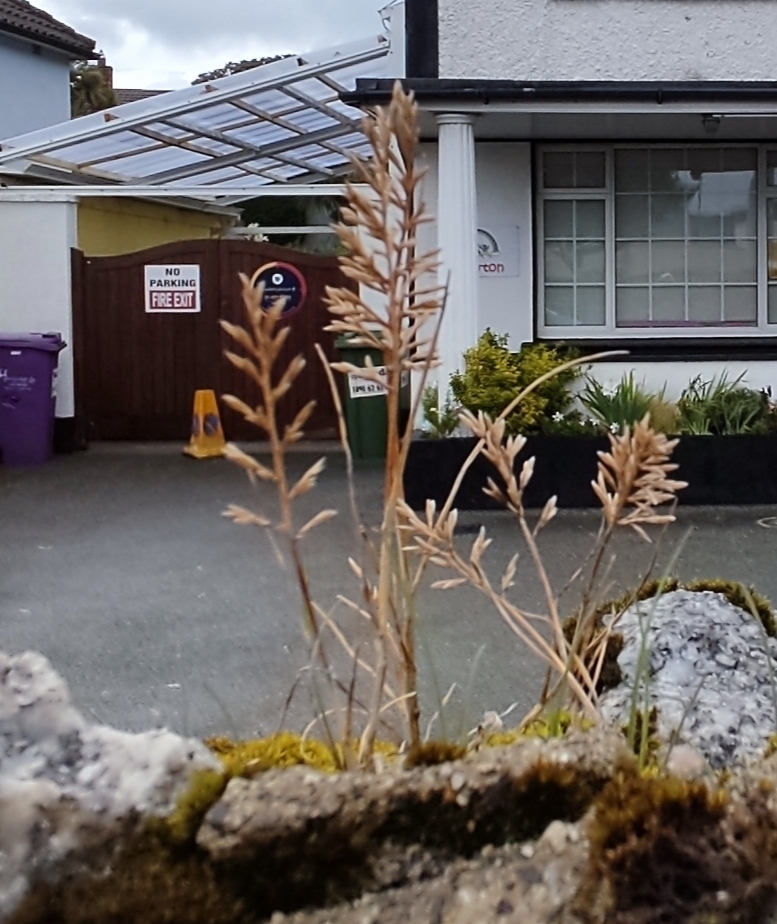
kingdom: Plantae
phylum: Tracheophyta
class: Liliopsida
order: Poales
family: Poaceae
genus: Catapodium
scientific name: Catapodium rigidum
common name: Fern-grass
